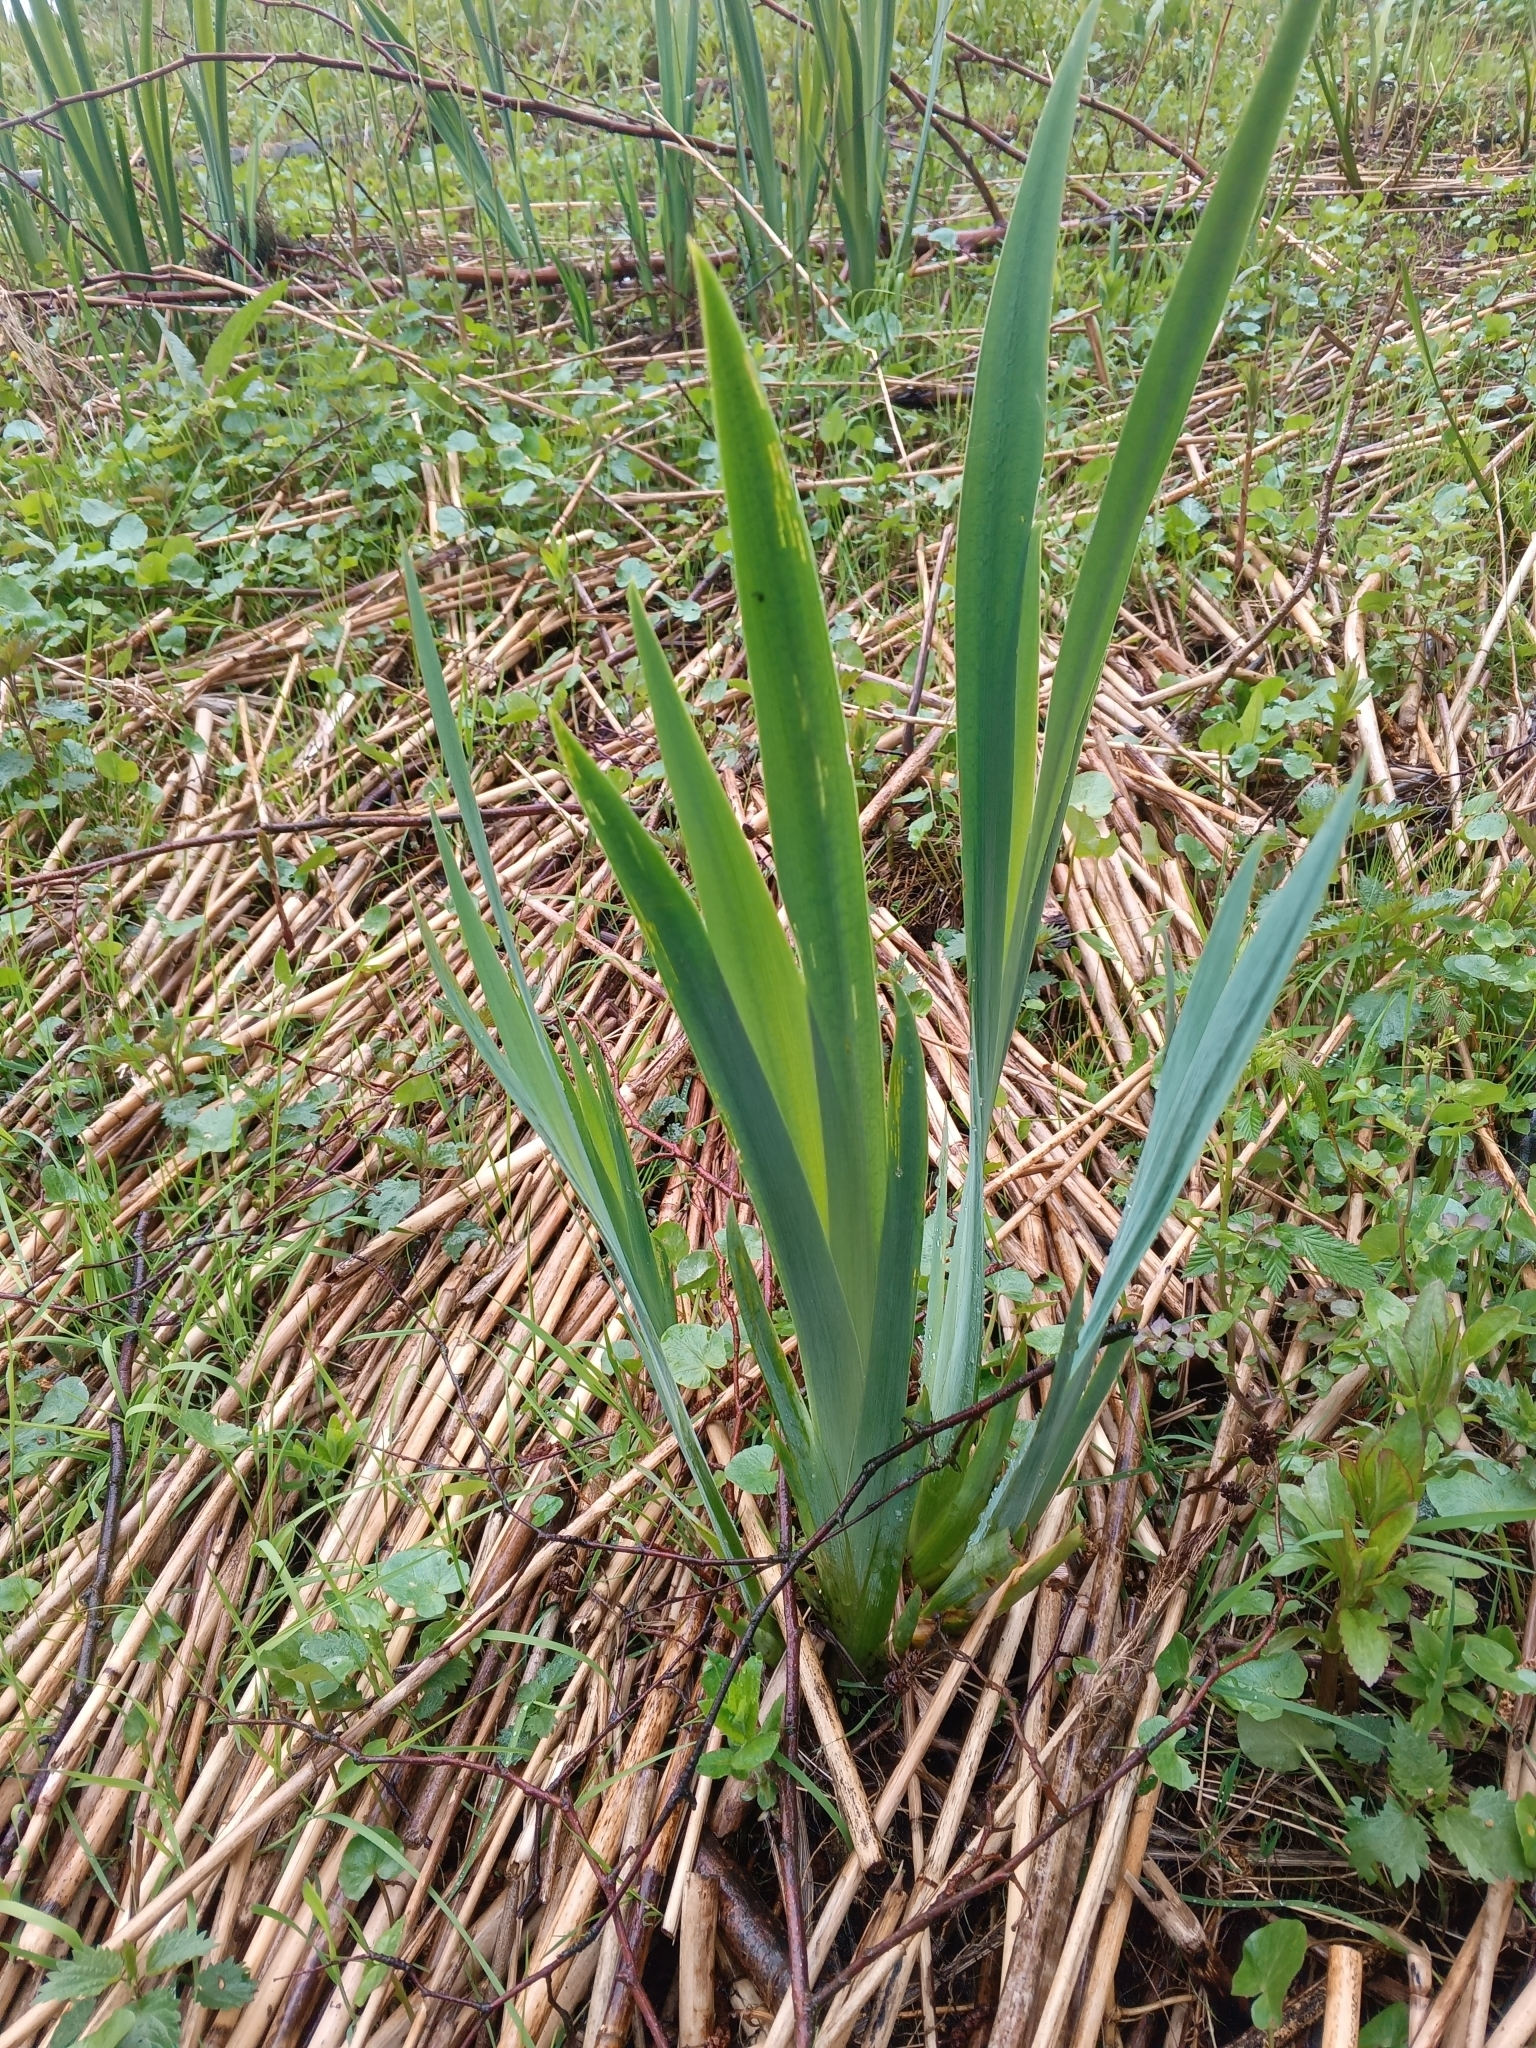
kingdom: Plantae
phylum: Tracheophyta
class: Liliopsida
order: Asparagales
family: Iridaceae
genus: Iris
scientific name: Iris pseudacorus
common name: Yellow flag
